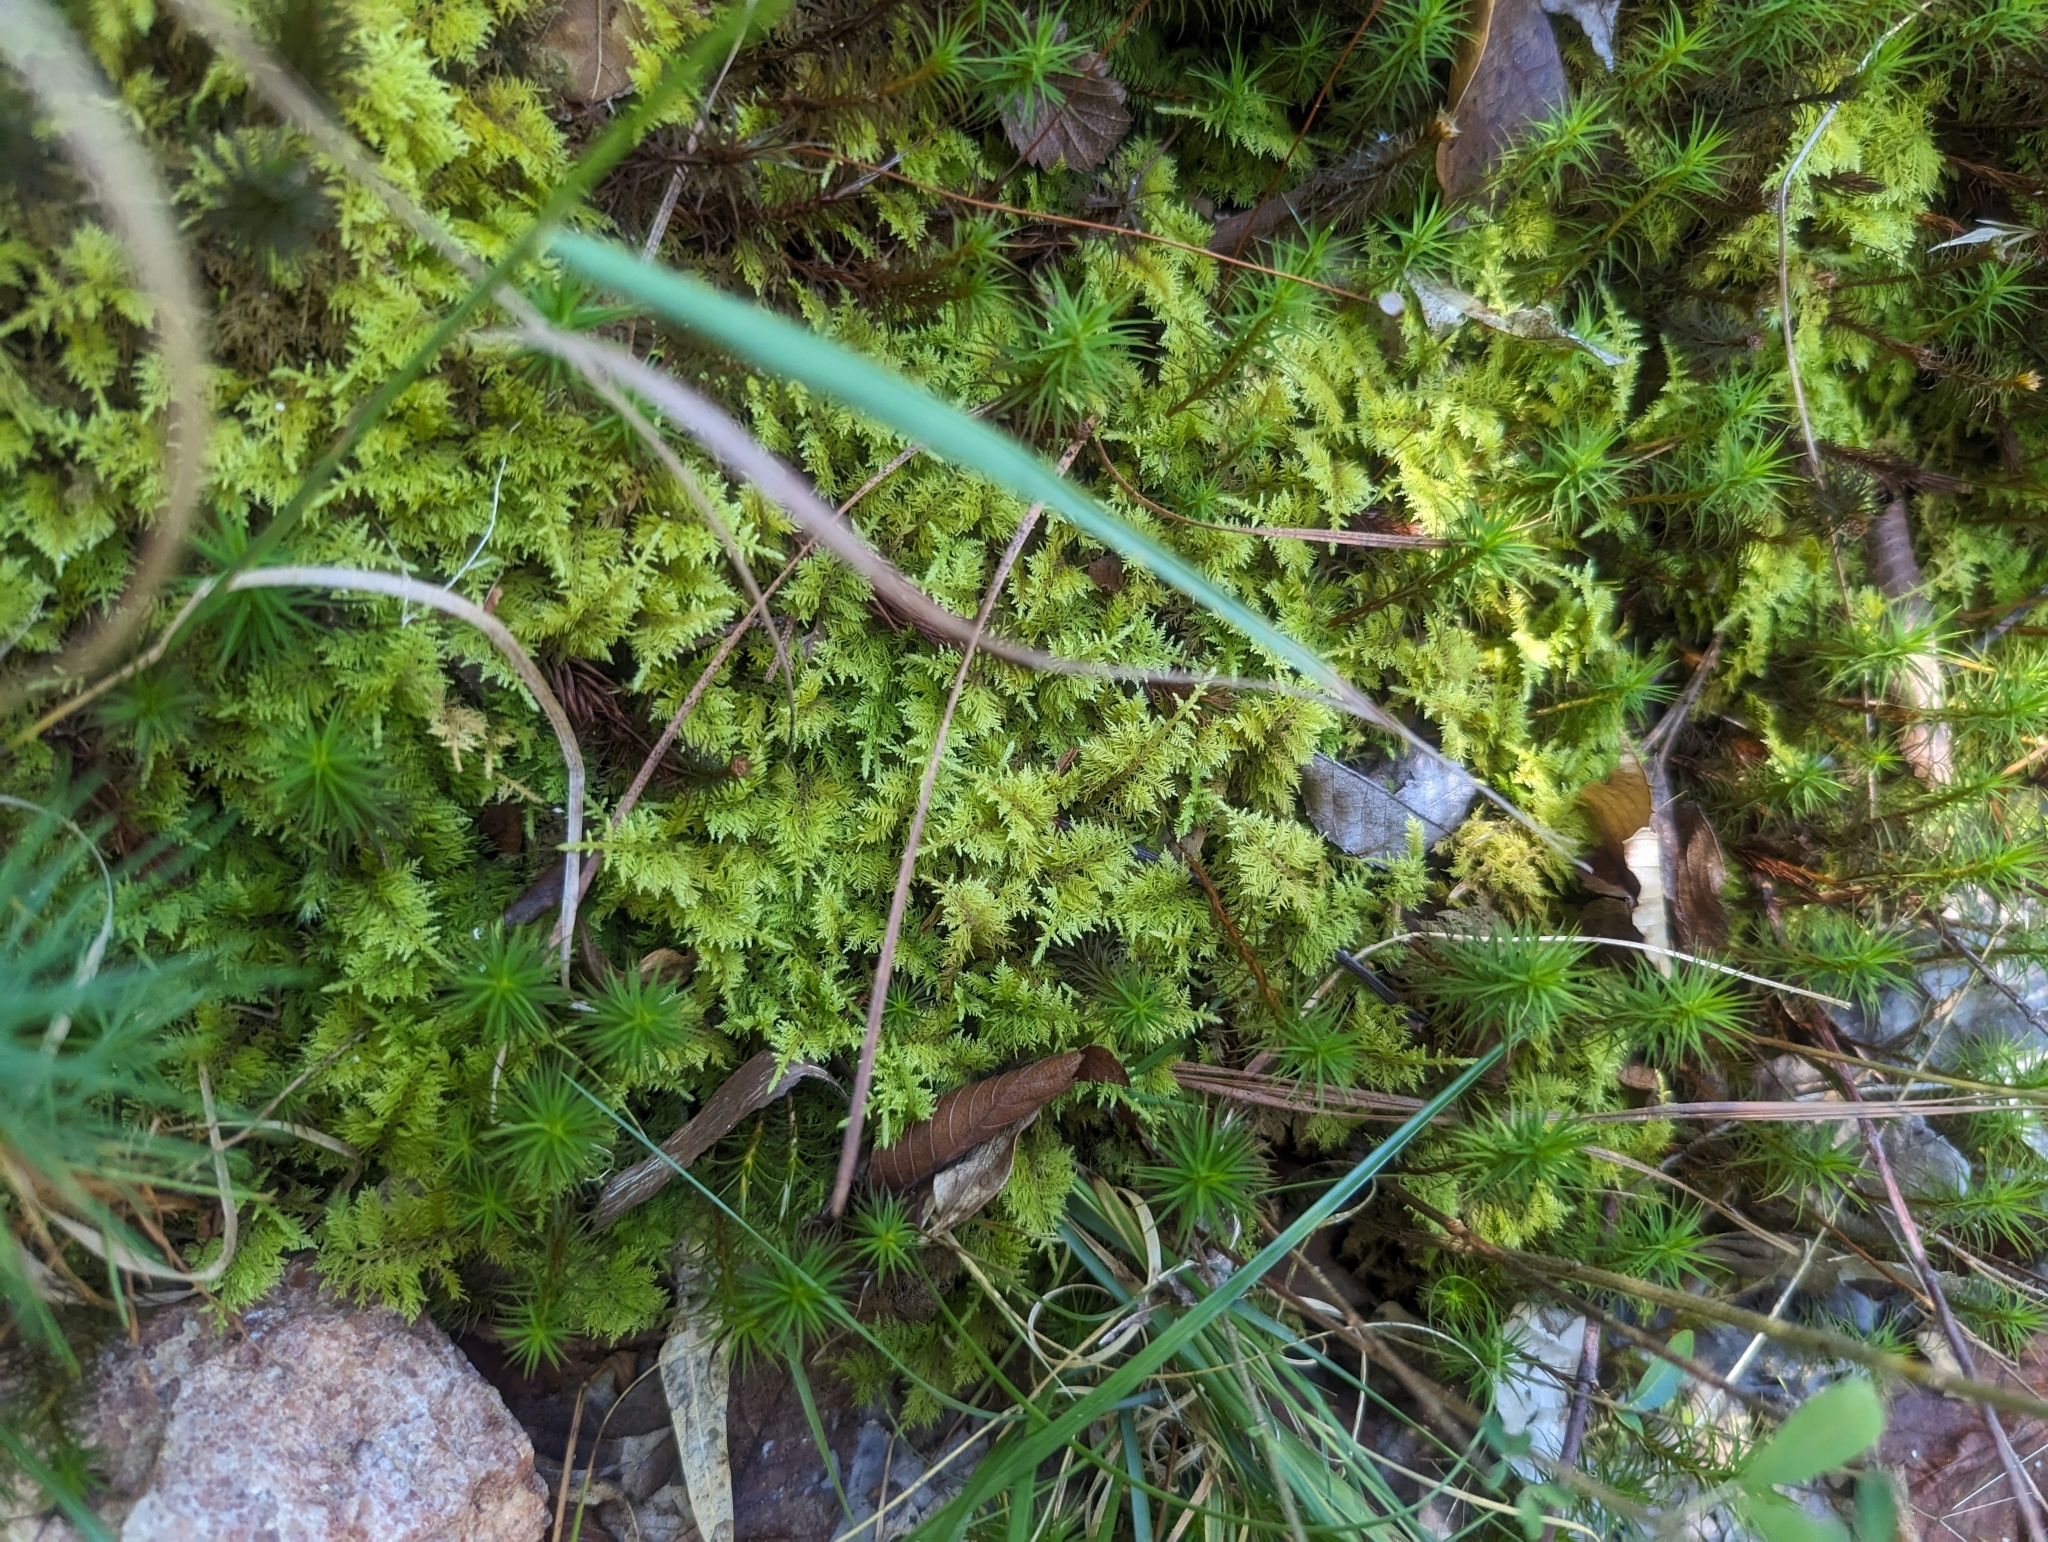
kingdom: Plantae
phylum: Bryophyta
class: Bryopsida
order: Hypnales
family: Thuidiaceae
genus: Thuidium
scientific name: Thuidium delicatulum
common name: Delicate fern moss
